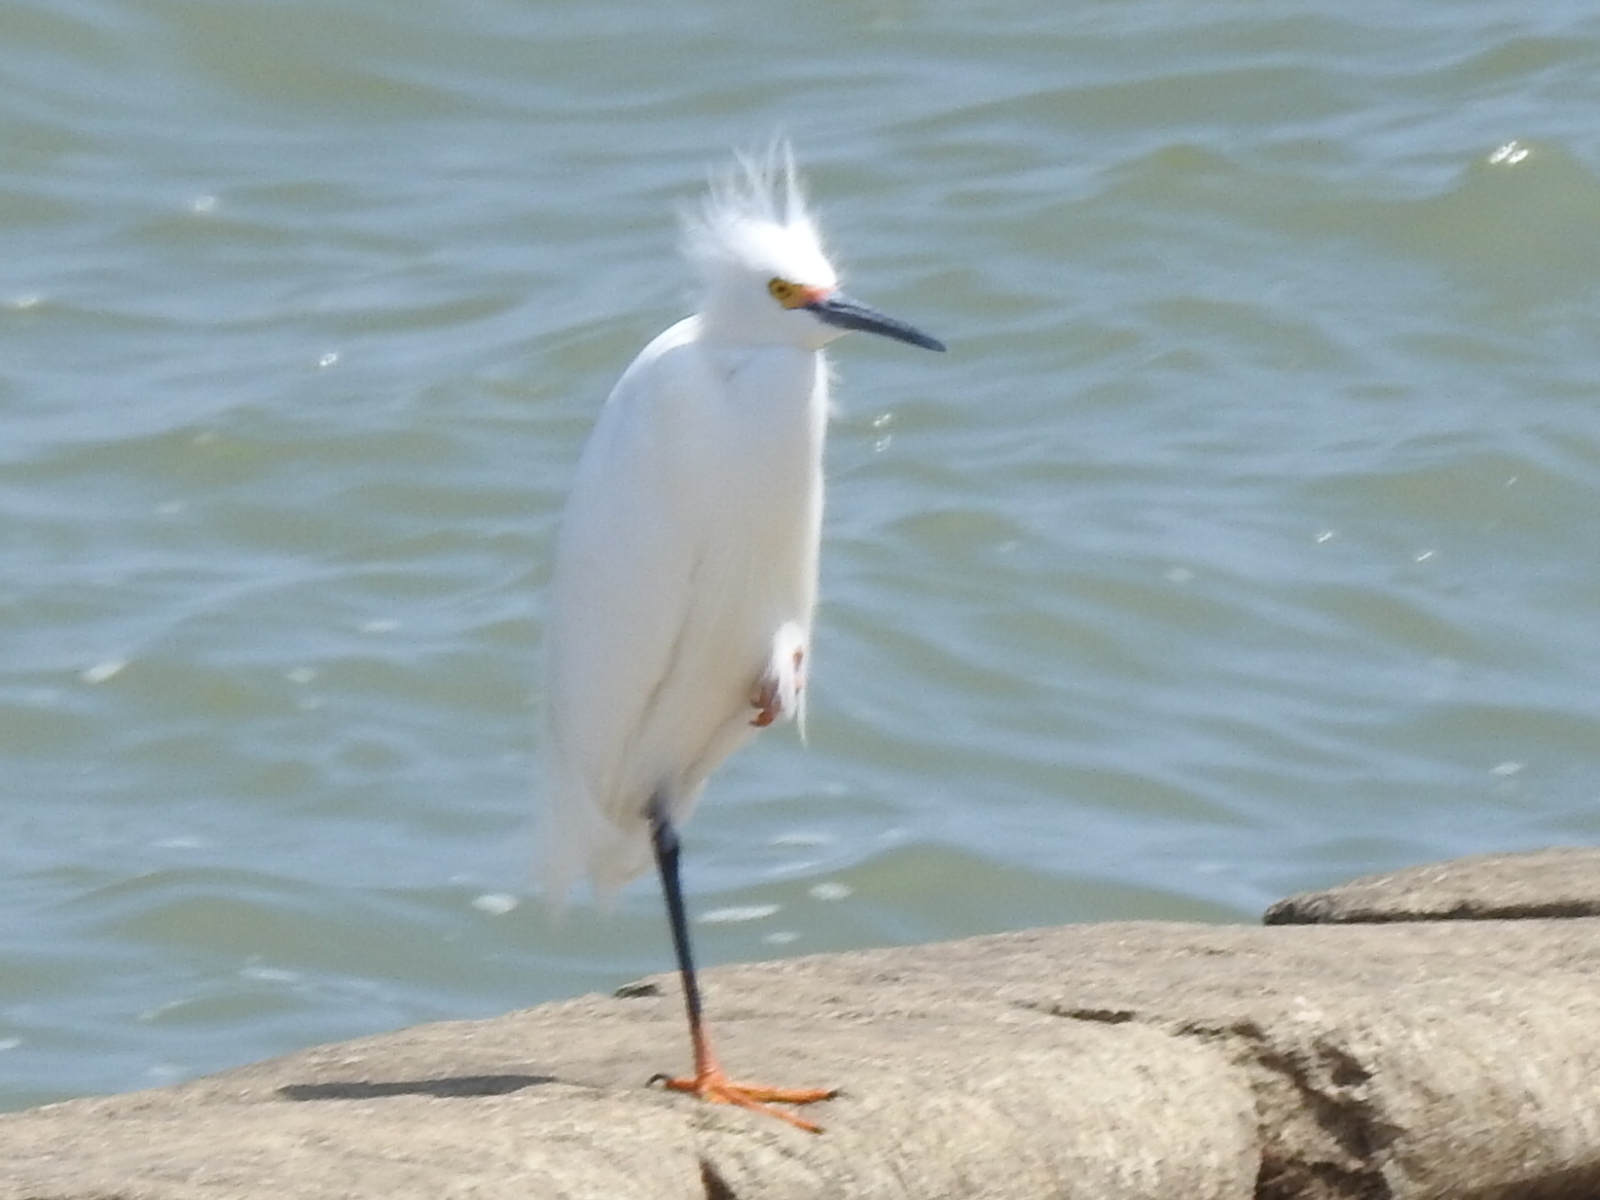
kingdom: Animalia
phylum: Chordata
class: Aves
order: Pelecaniformes
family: Ardeidae
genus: Egretta
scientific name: Egretta thula
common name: Snowy egret
